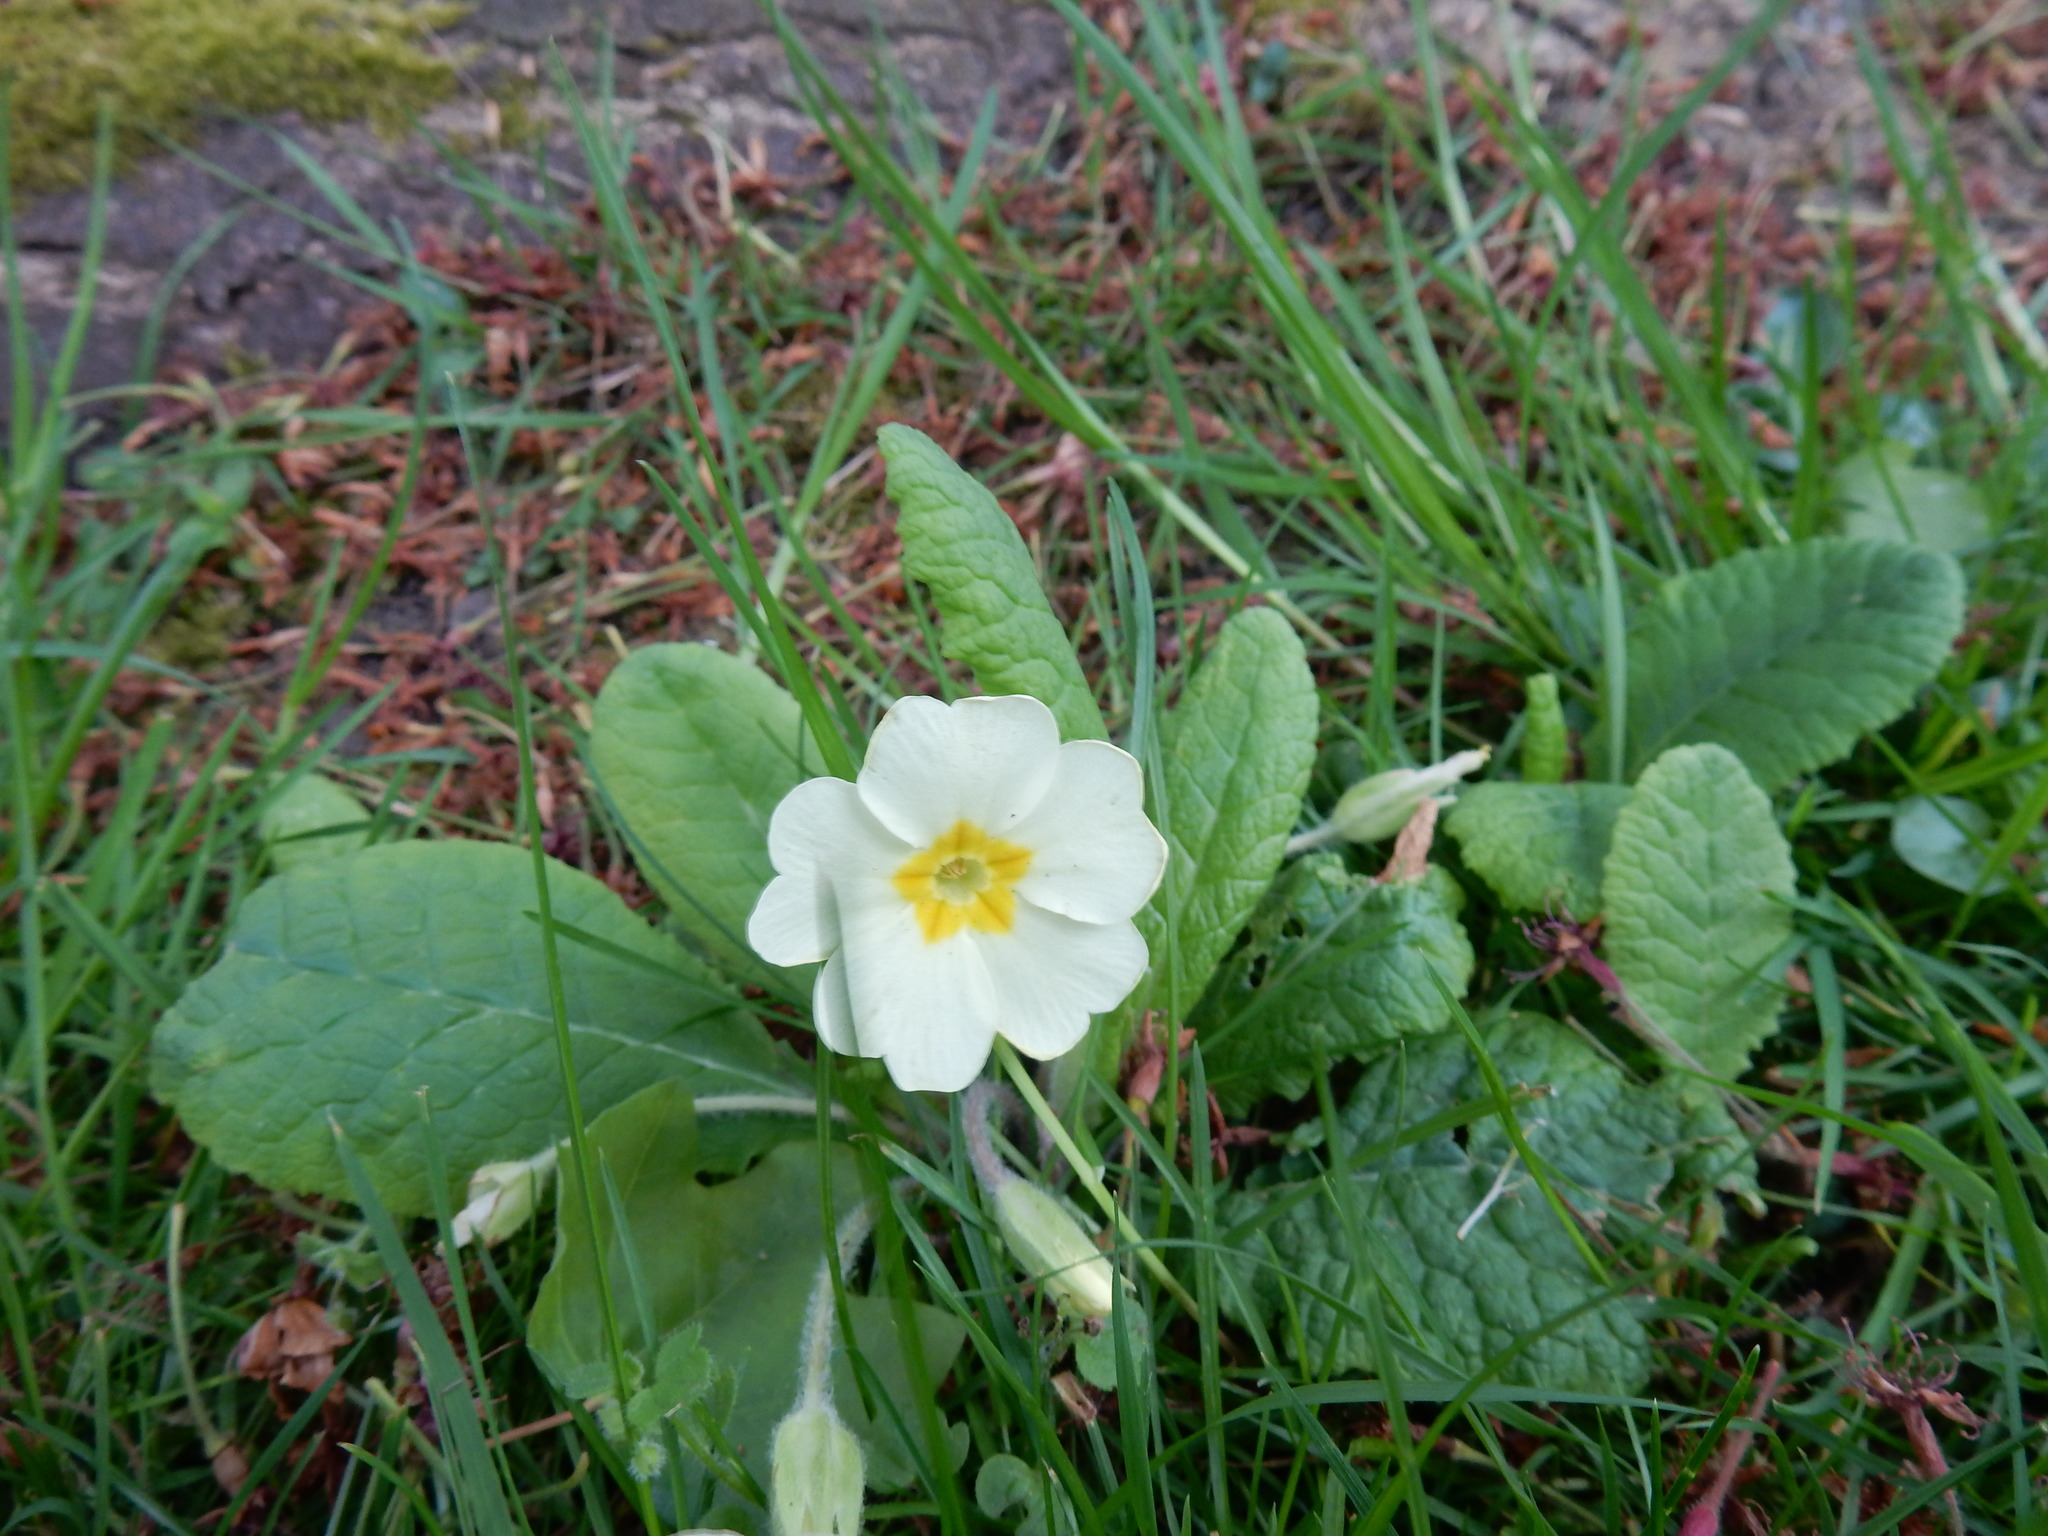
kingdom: Plantae
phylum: Tracheophyta
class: Magnoliopsida
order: Ericales
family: Primulaceae
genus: Primula
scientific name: Primula vulgaris
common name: Primrose
